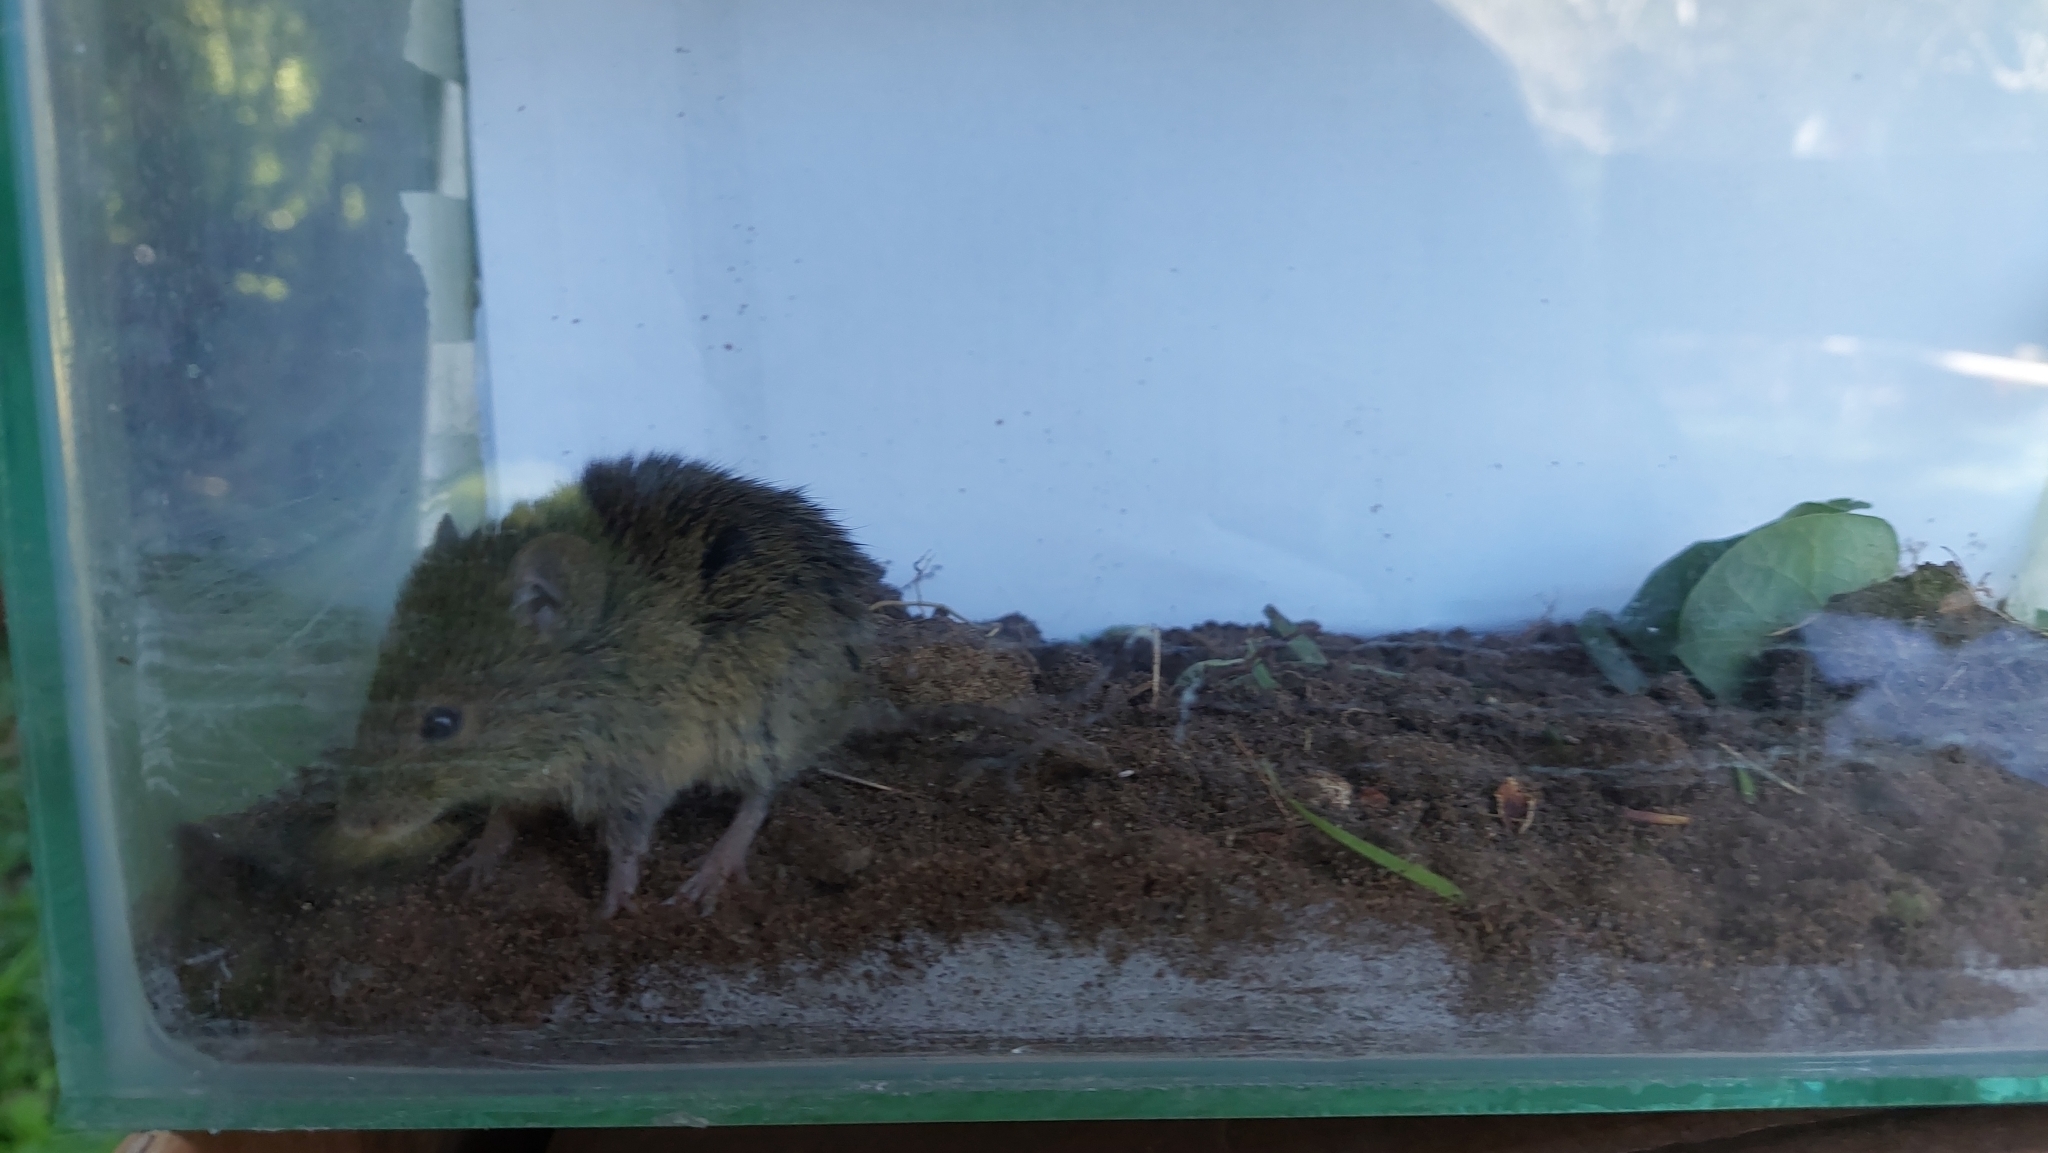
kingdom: Animalia
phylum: Chordata
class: Mammalia
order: Rodentia
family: Cricetidae
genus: Akodon
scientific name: Akodon azarae
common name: Azara's grass mouse
